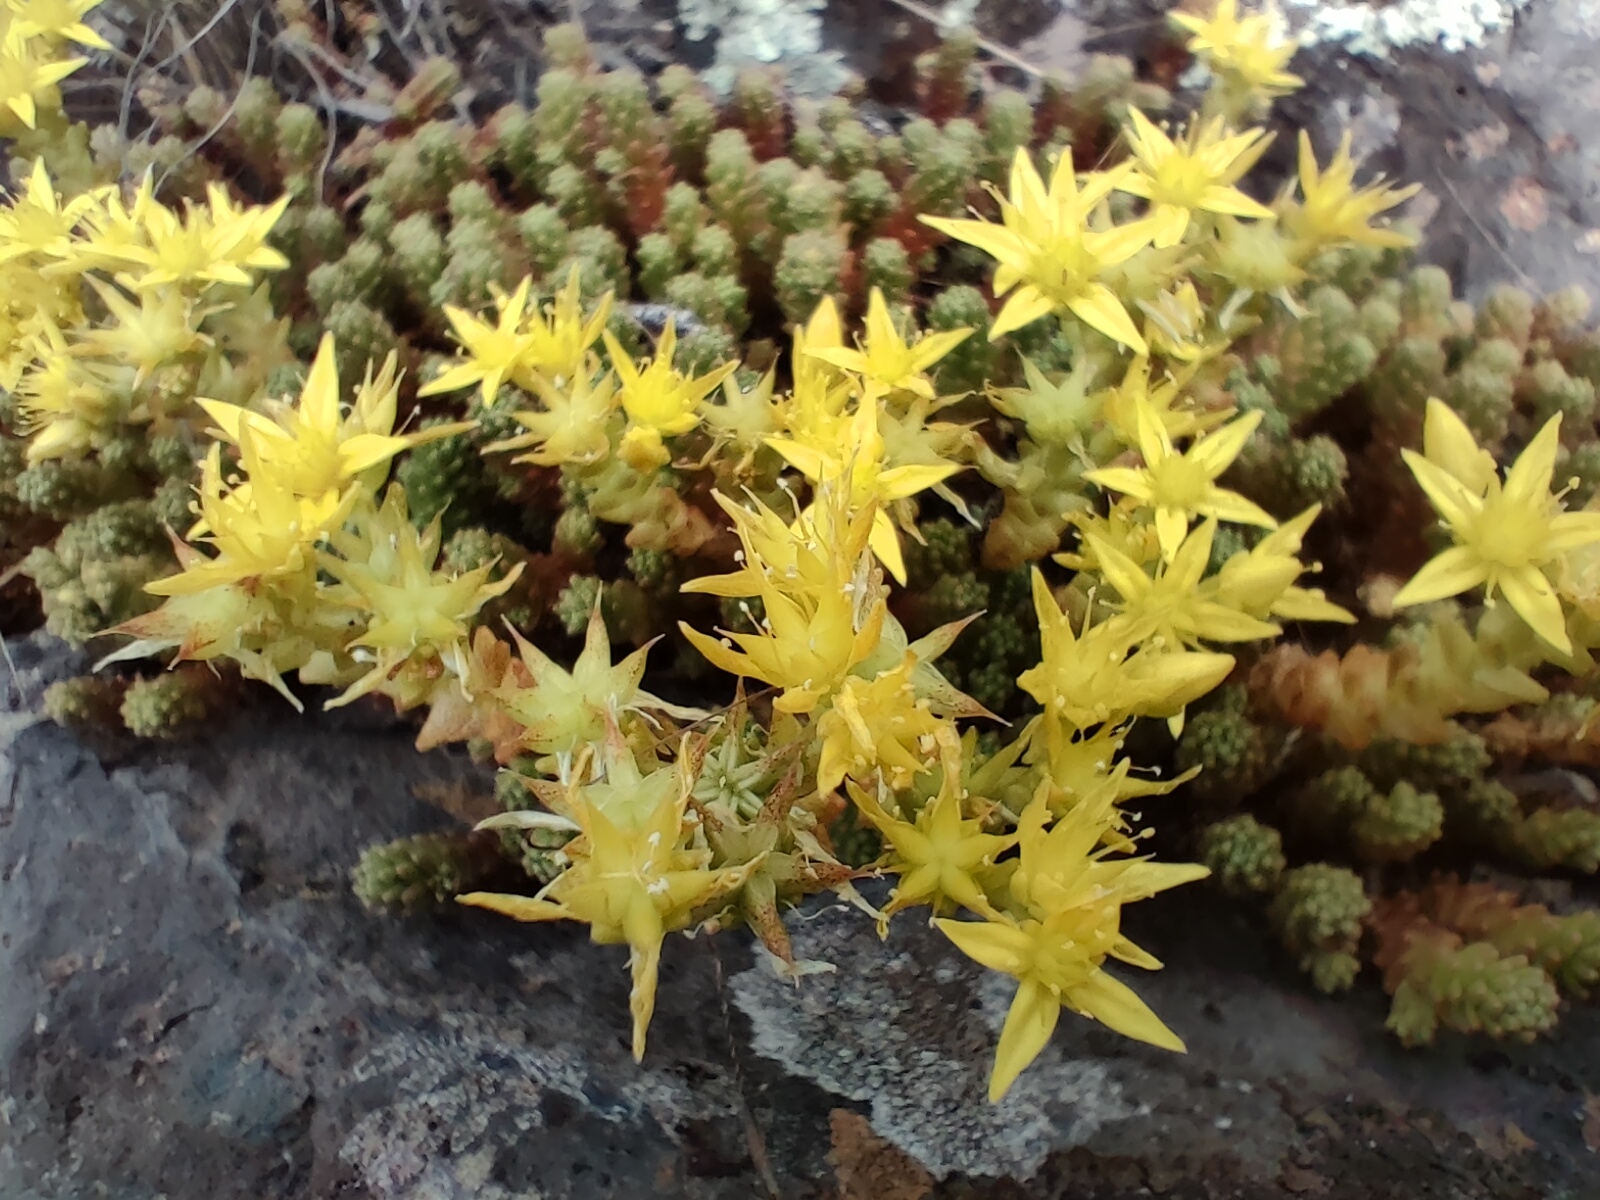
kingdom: Plantae
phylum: Tracheophyta
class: Magnoliopsida
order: Saxifragales
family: Crassulaceae
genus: Sedum
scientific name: Sedum acre
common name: Biting stonecrop
